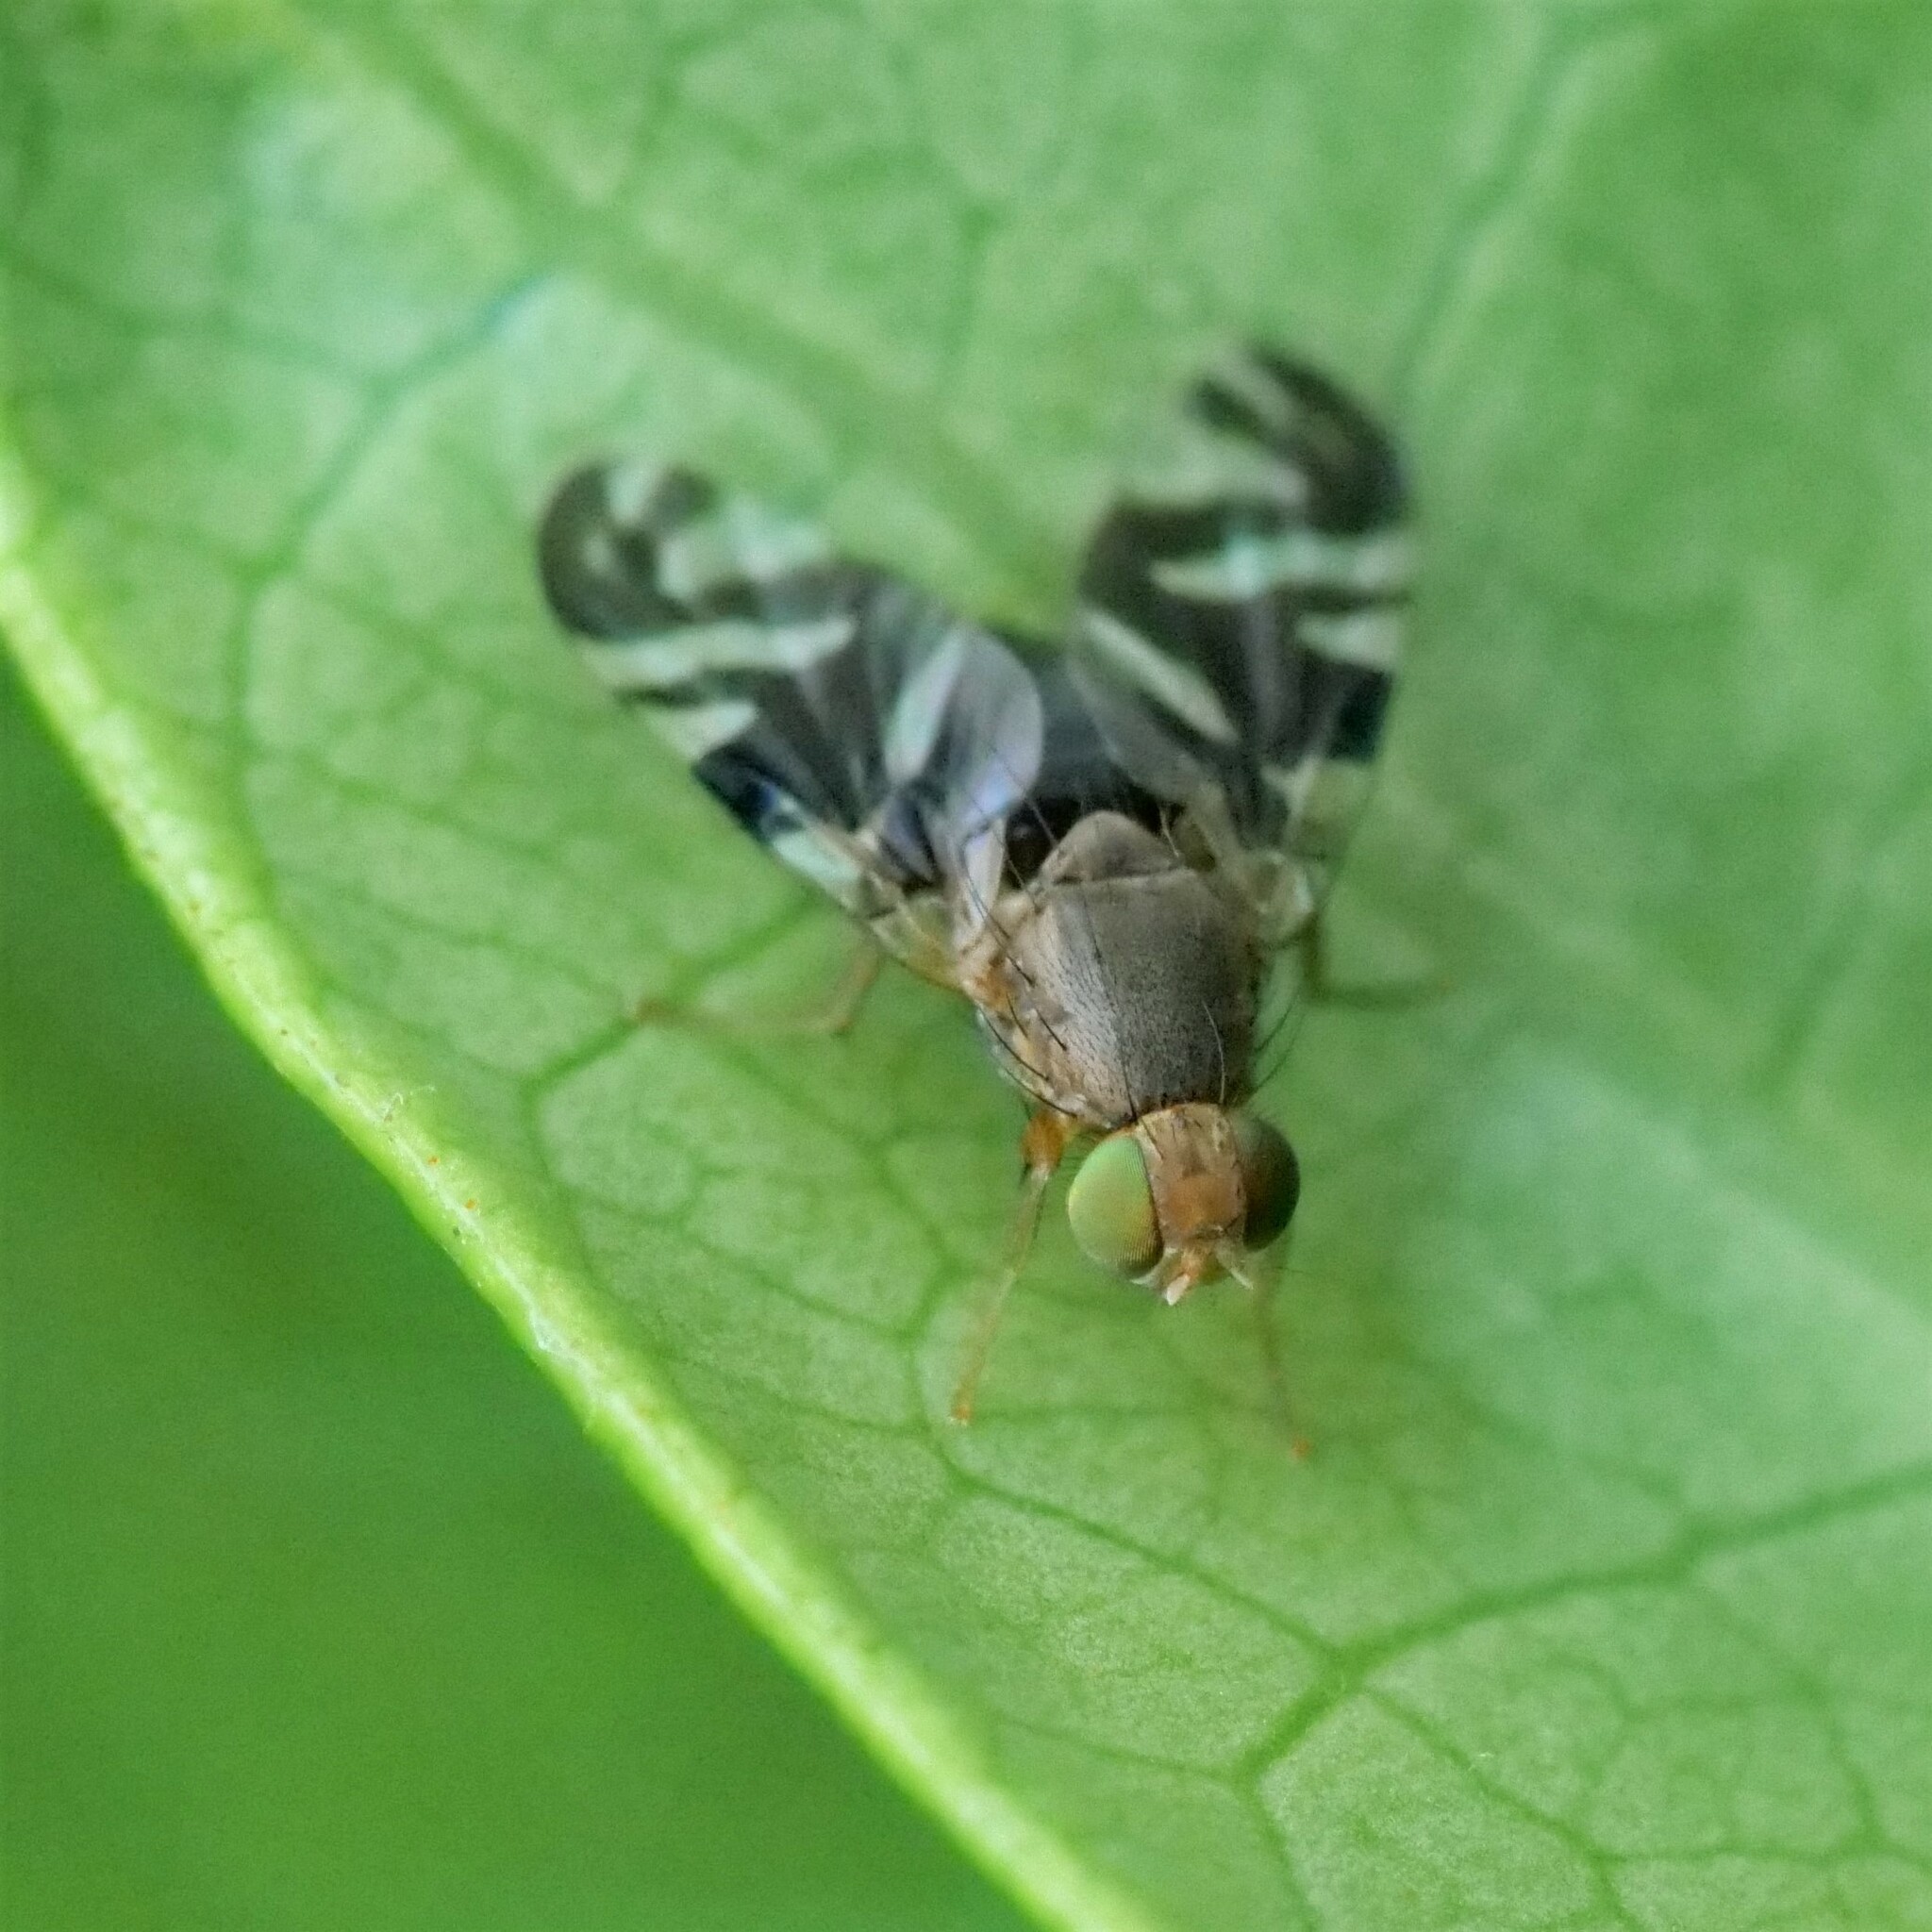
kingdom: Animalia
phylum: Arthropoda
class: Insecta
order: Diptera
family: Tephritidae
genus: Philophylla
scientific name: Philophylla caesio
